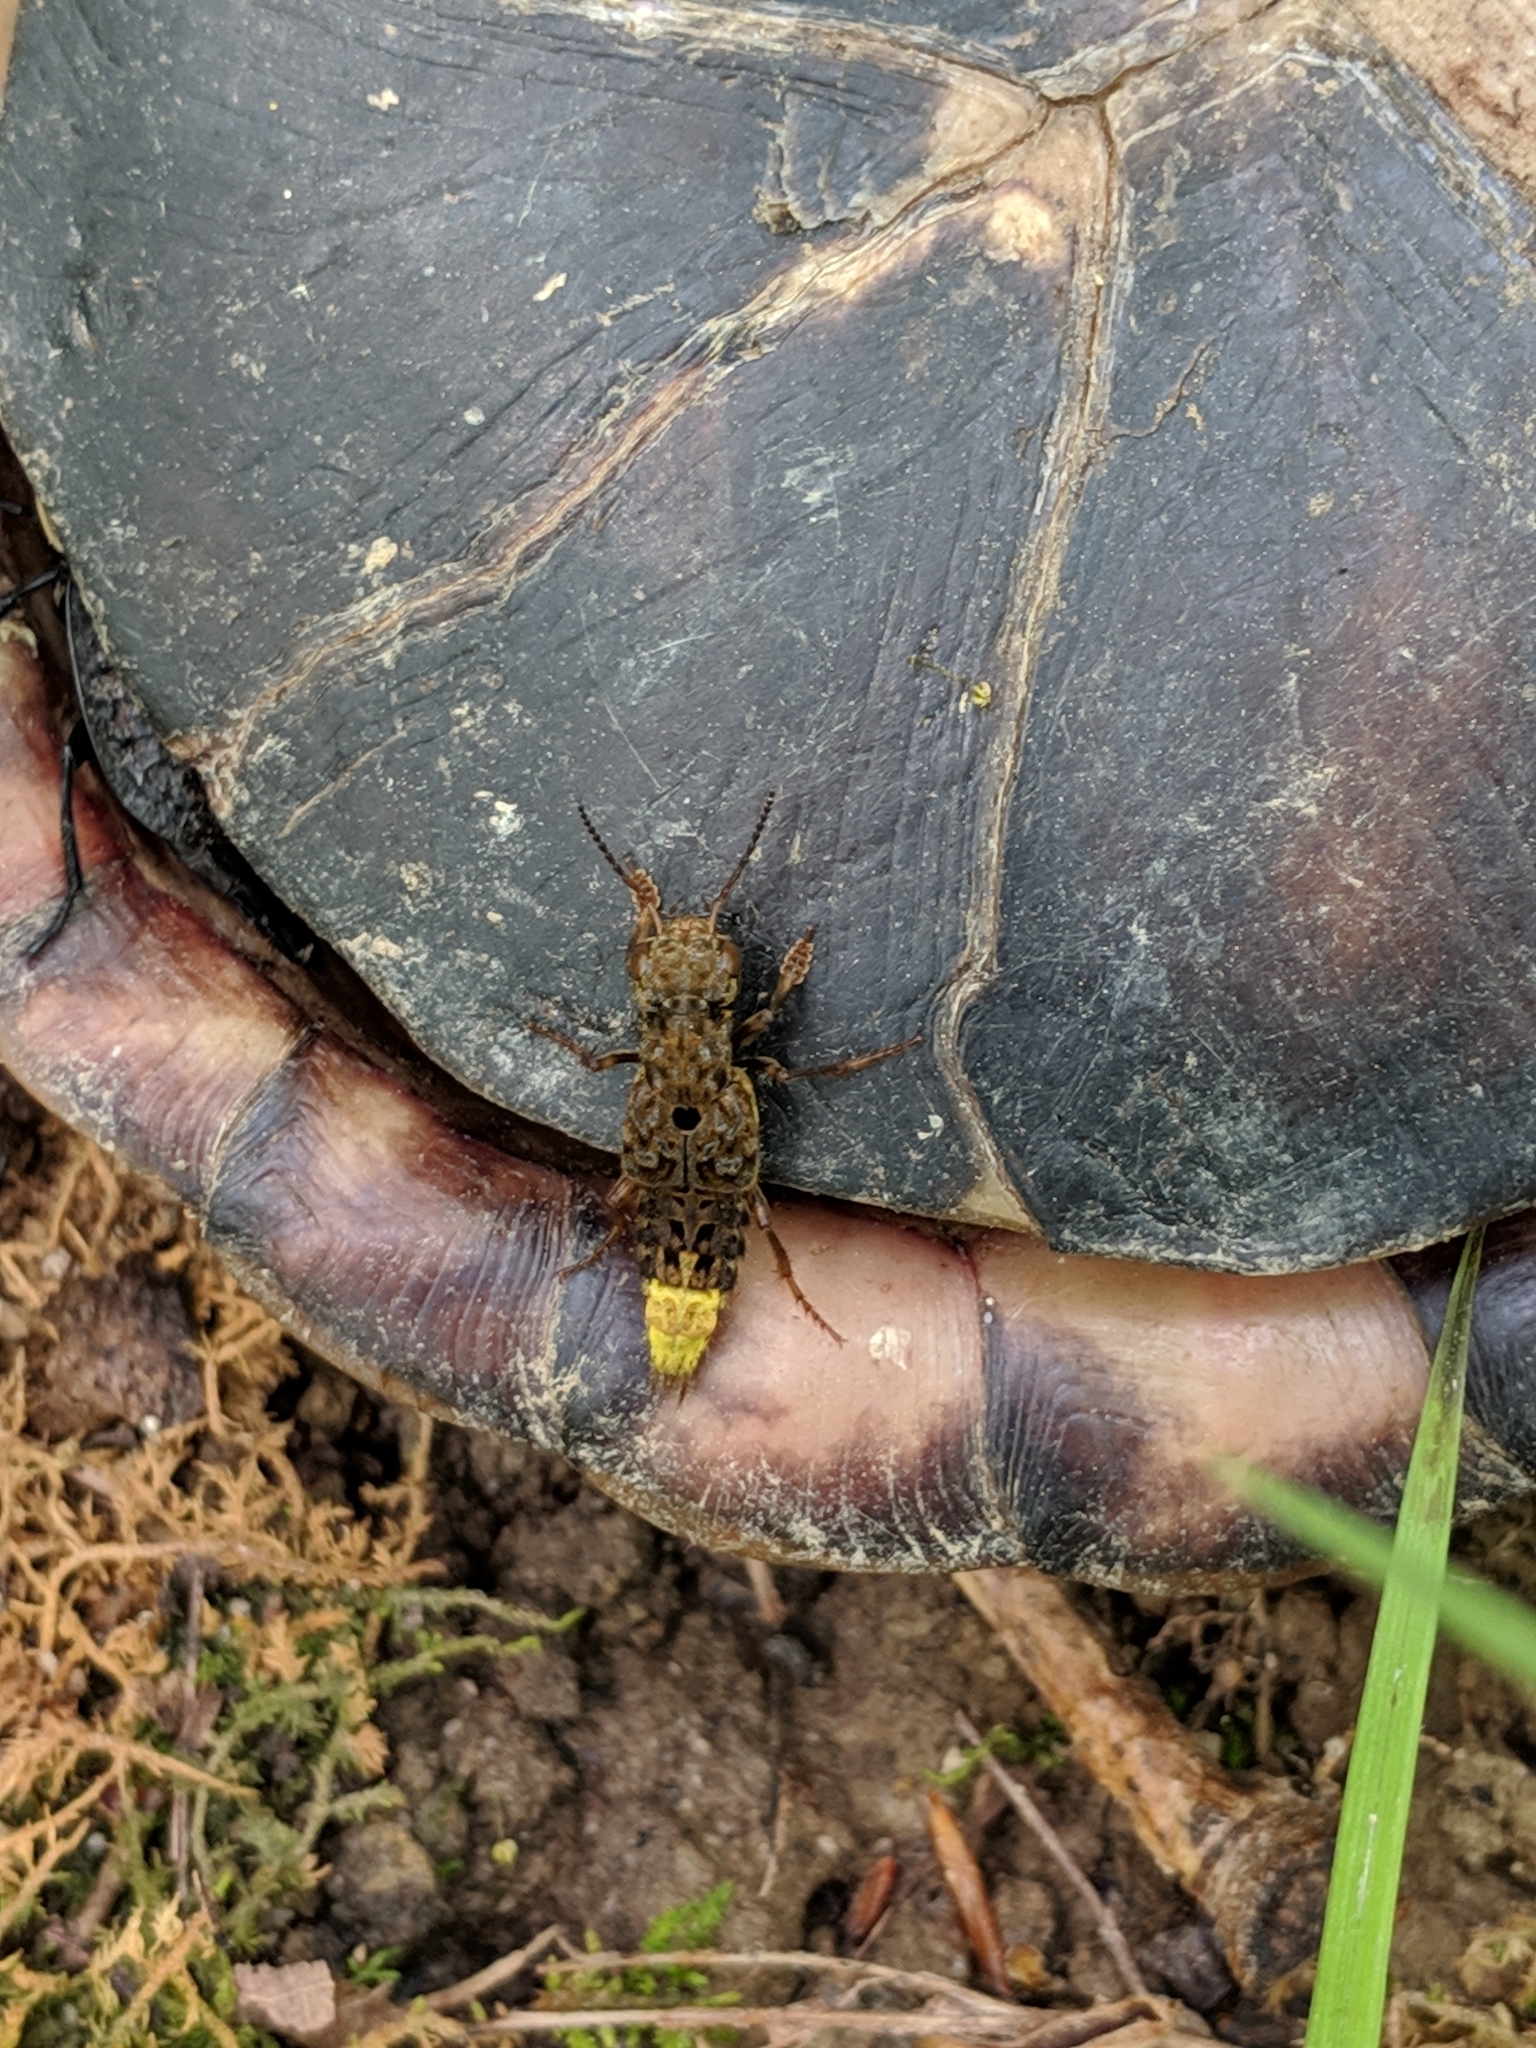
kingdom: Animalia
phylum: Arthropoda
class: Insecta
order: Coleoptera
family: Staphylinidae
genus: Ontholestes
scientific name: Ontholestes cingulatus
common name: Gold-and-brown rove beetle
